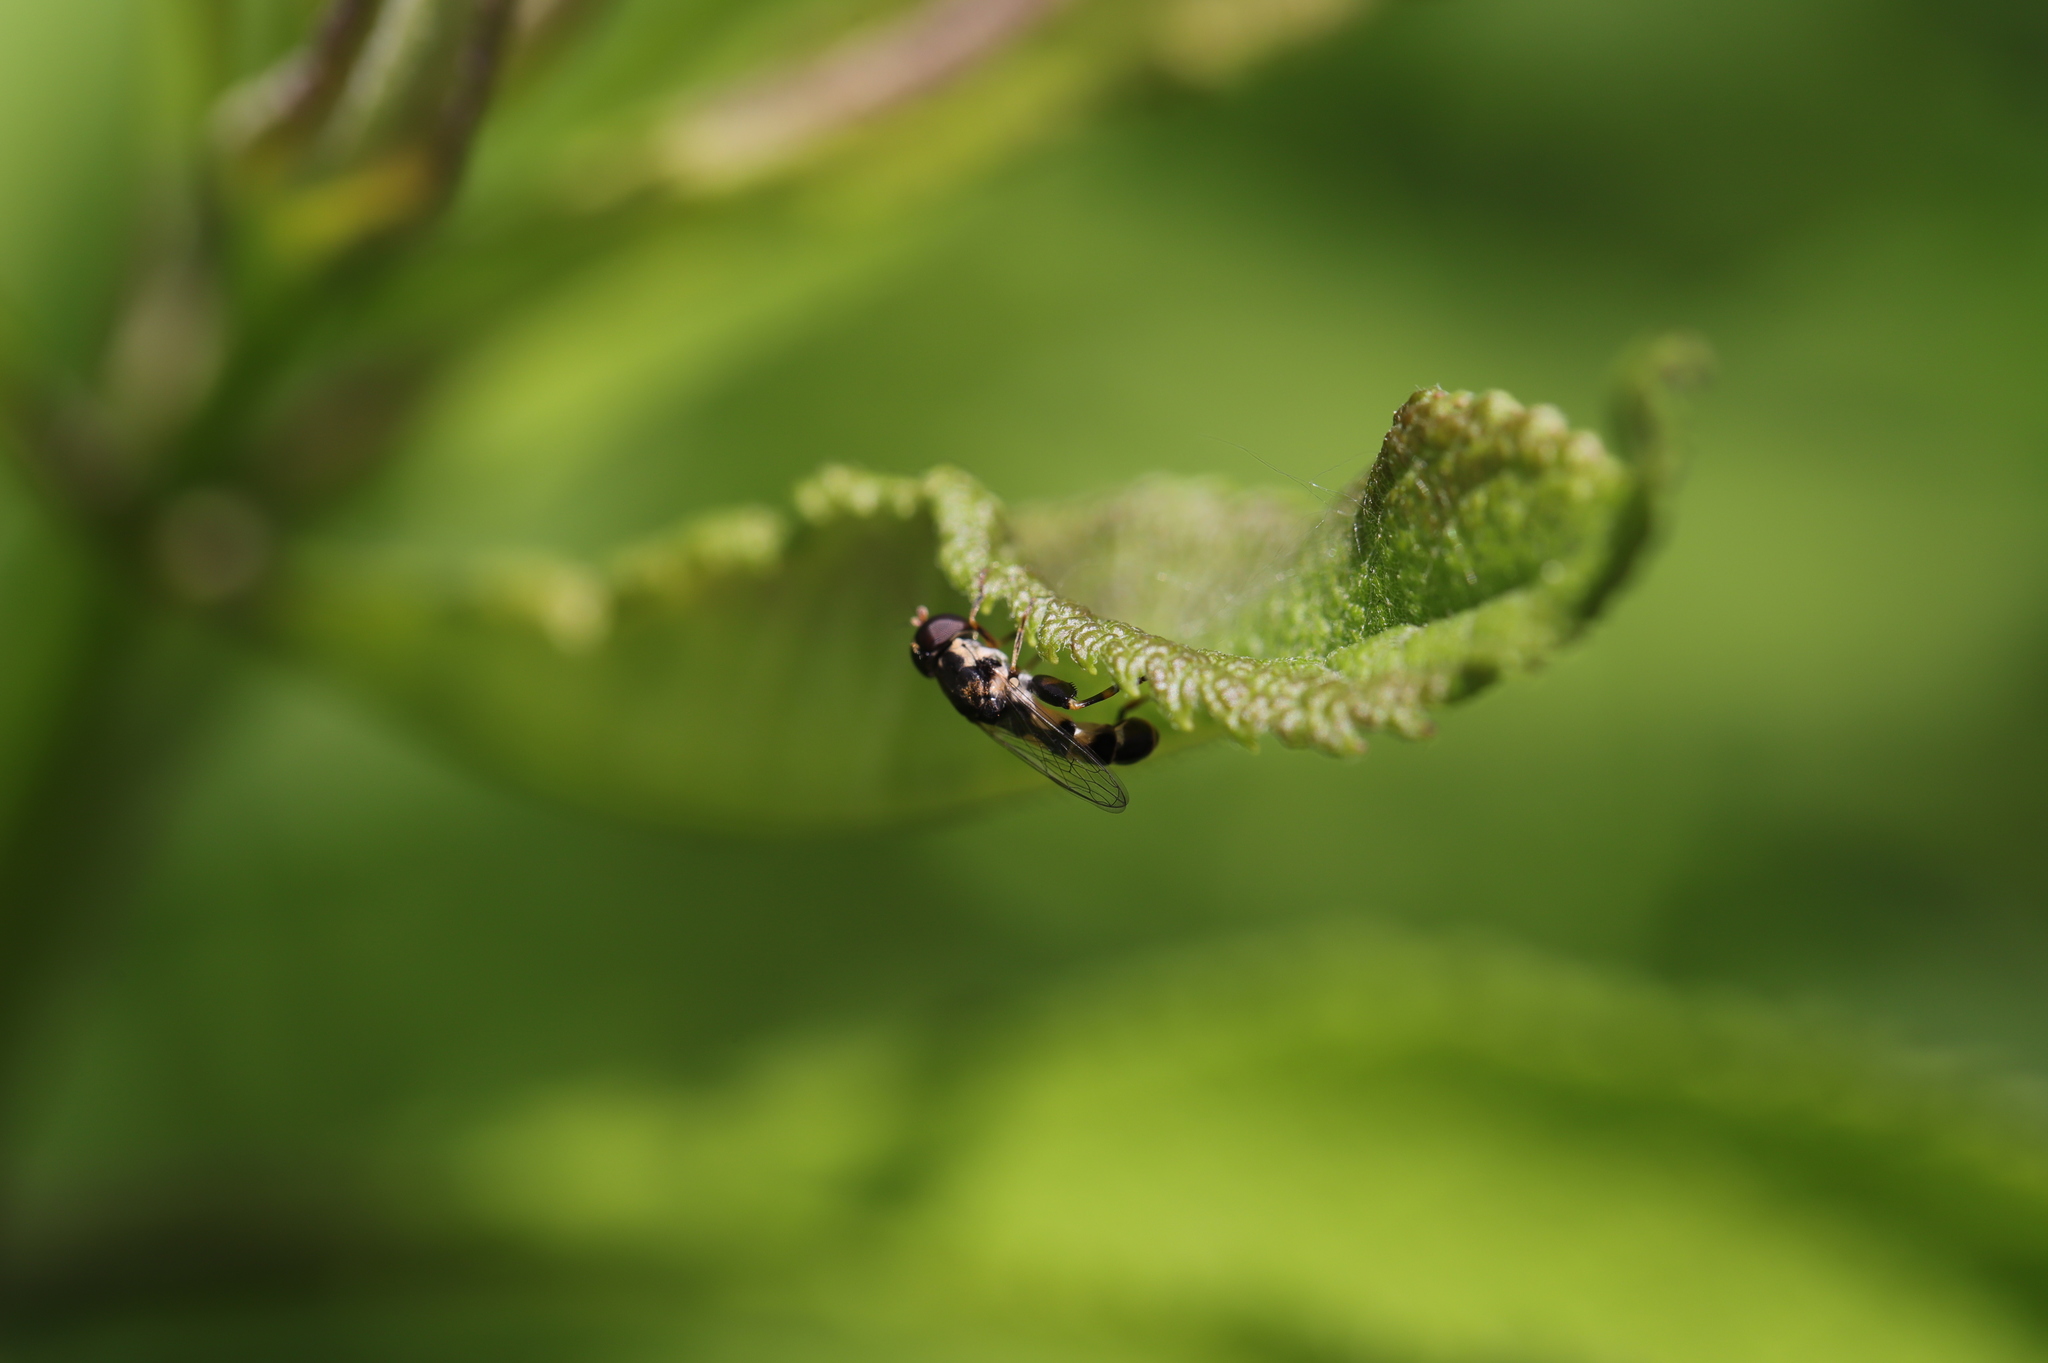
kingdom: Animalia
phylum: Arthropoda
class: Insecta
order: Diptera
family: Syrphidae
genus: Syritta
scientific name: Syritta pipiens
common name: Hover fly
